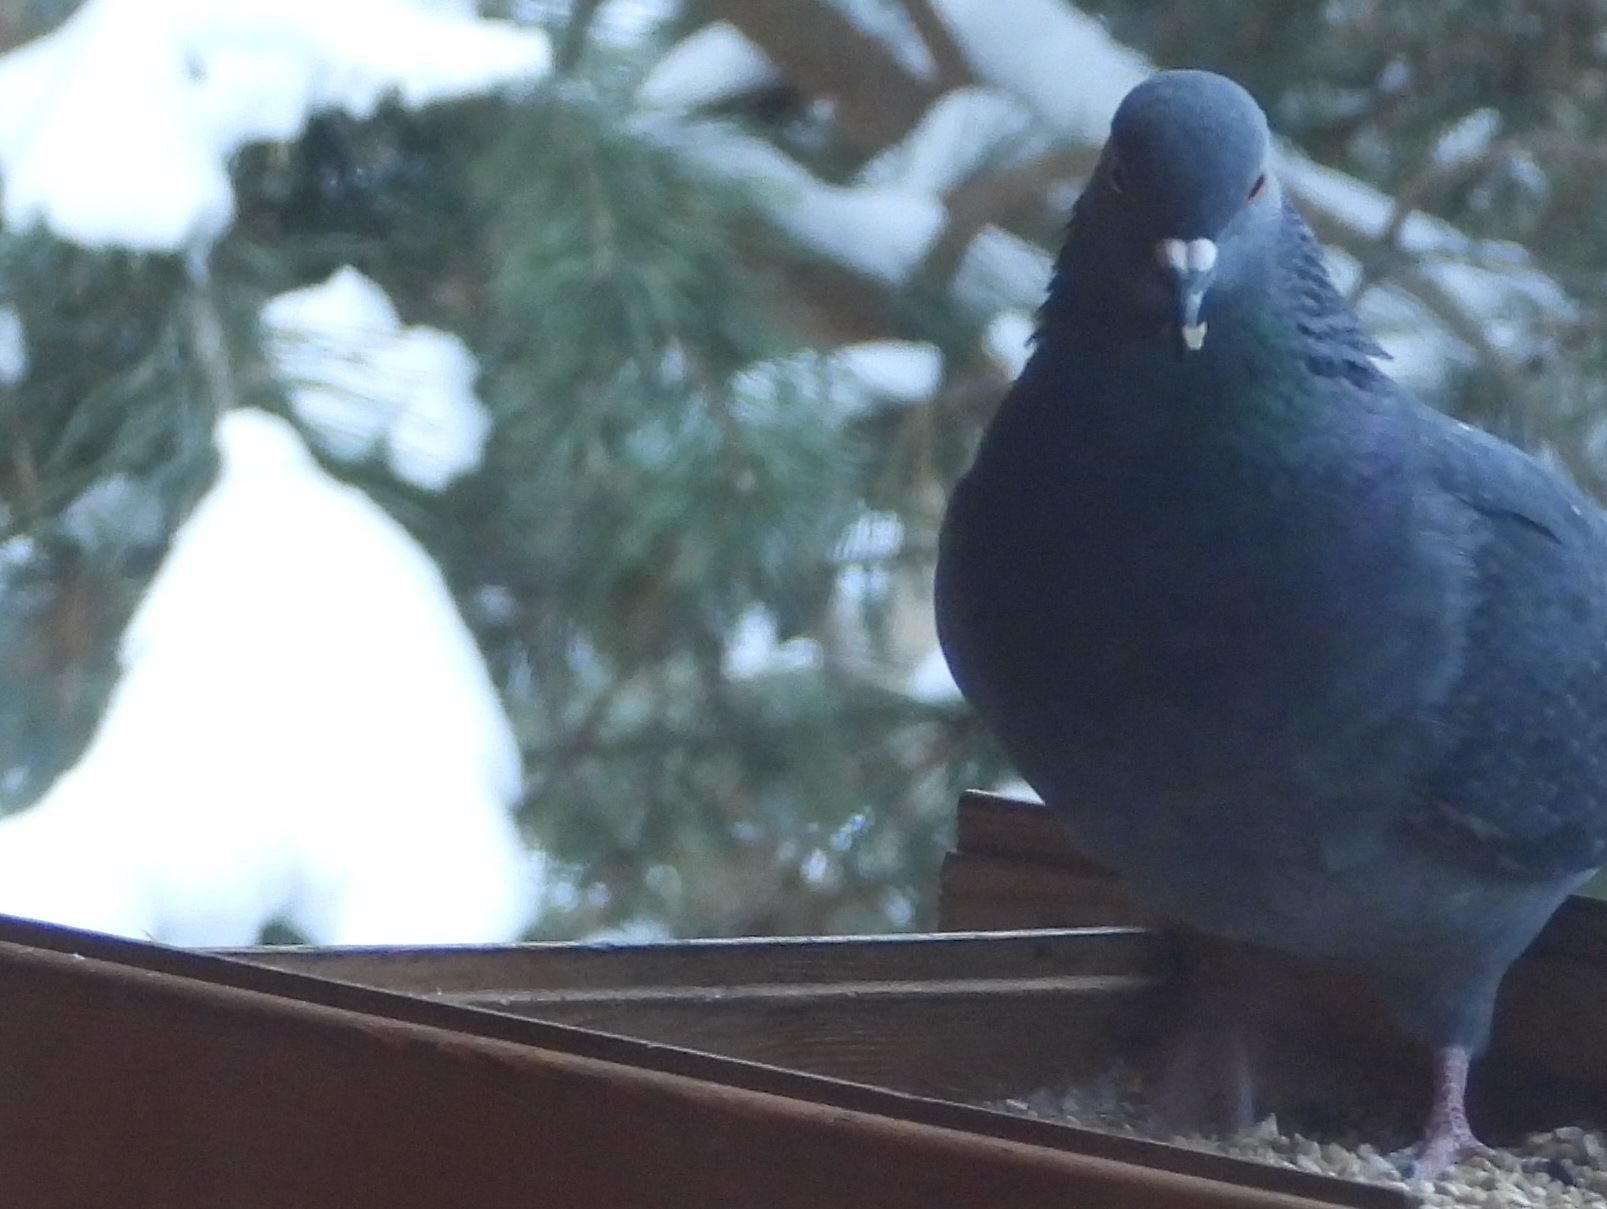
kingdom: Animalia
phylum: Chordata
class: Aves
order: Columbiformes
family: Columbidae
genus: Columba
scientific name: Columba livia
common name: Rock pigeon
